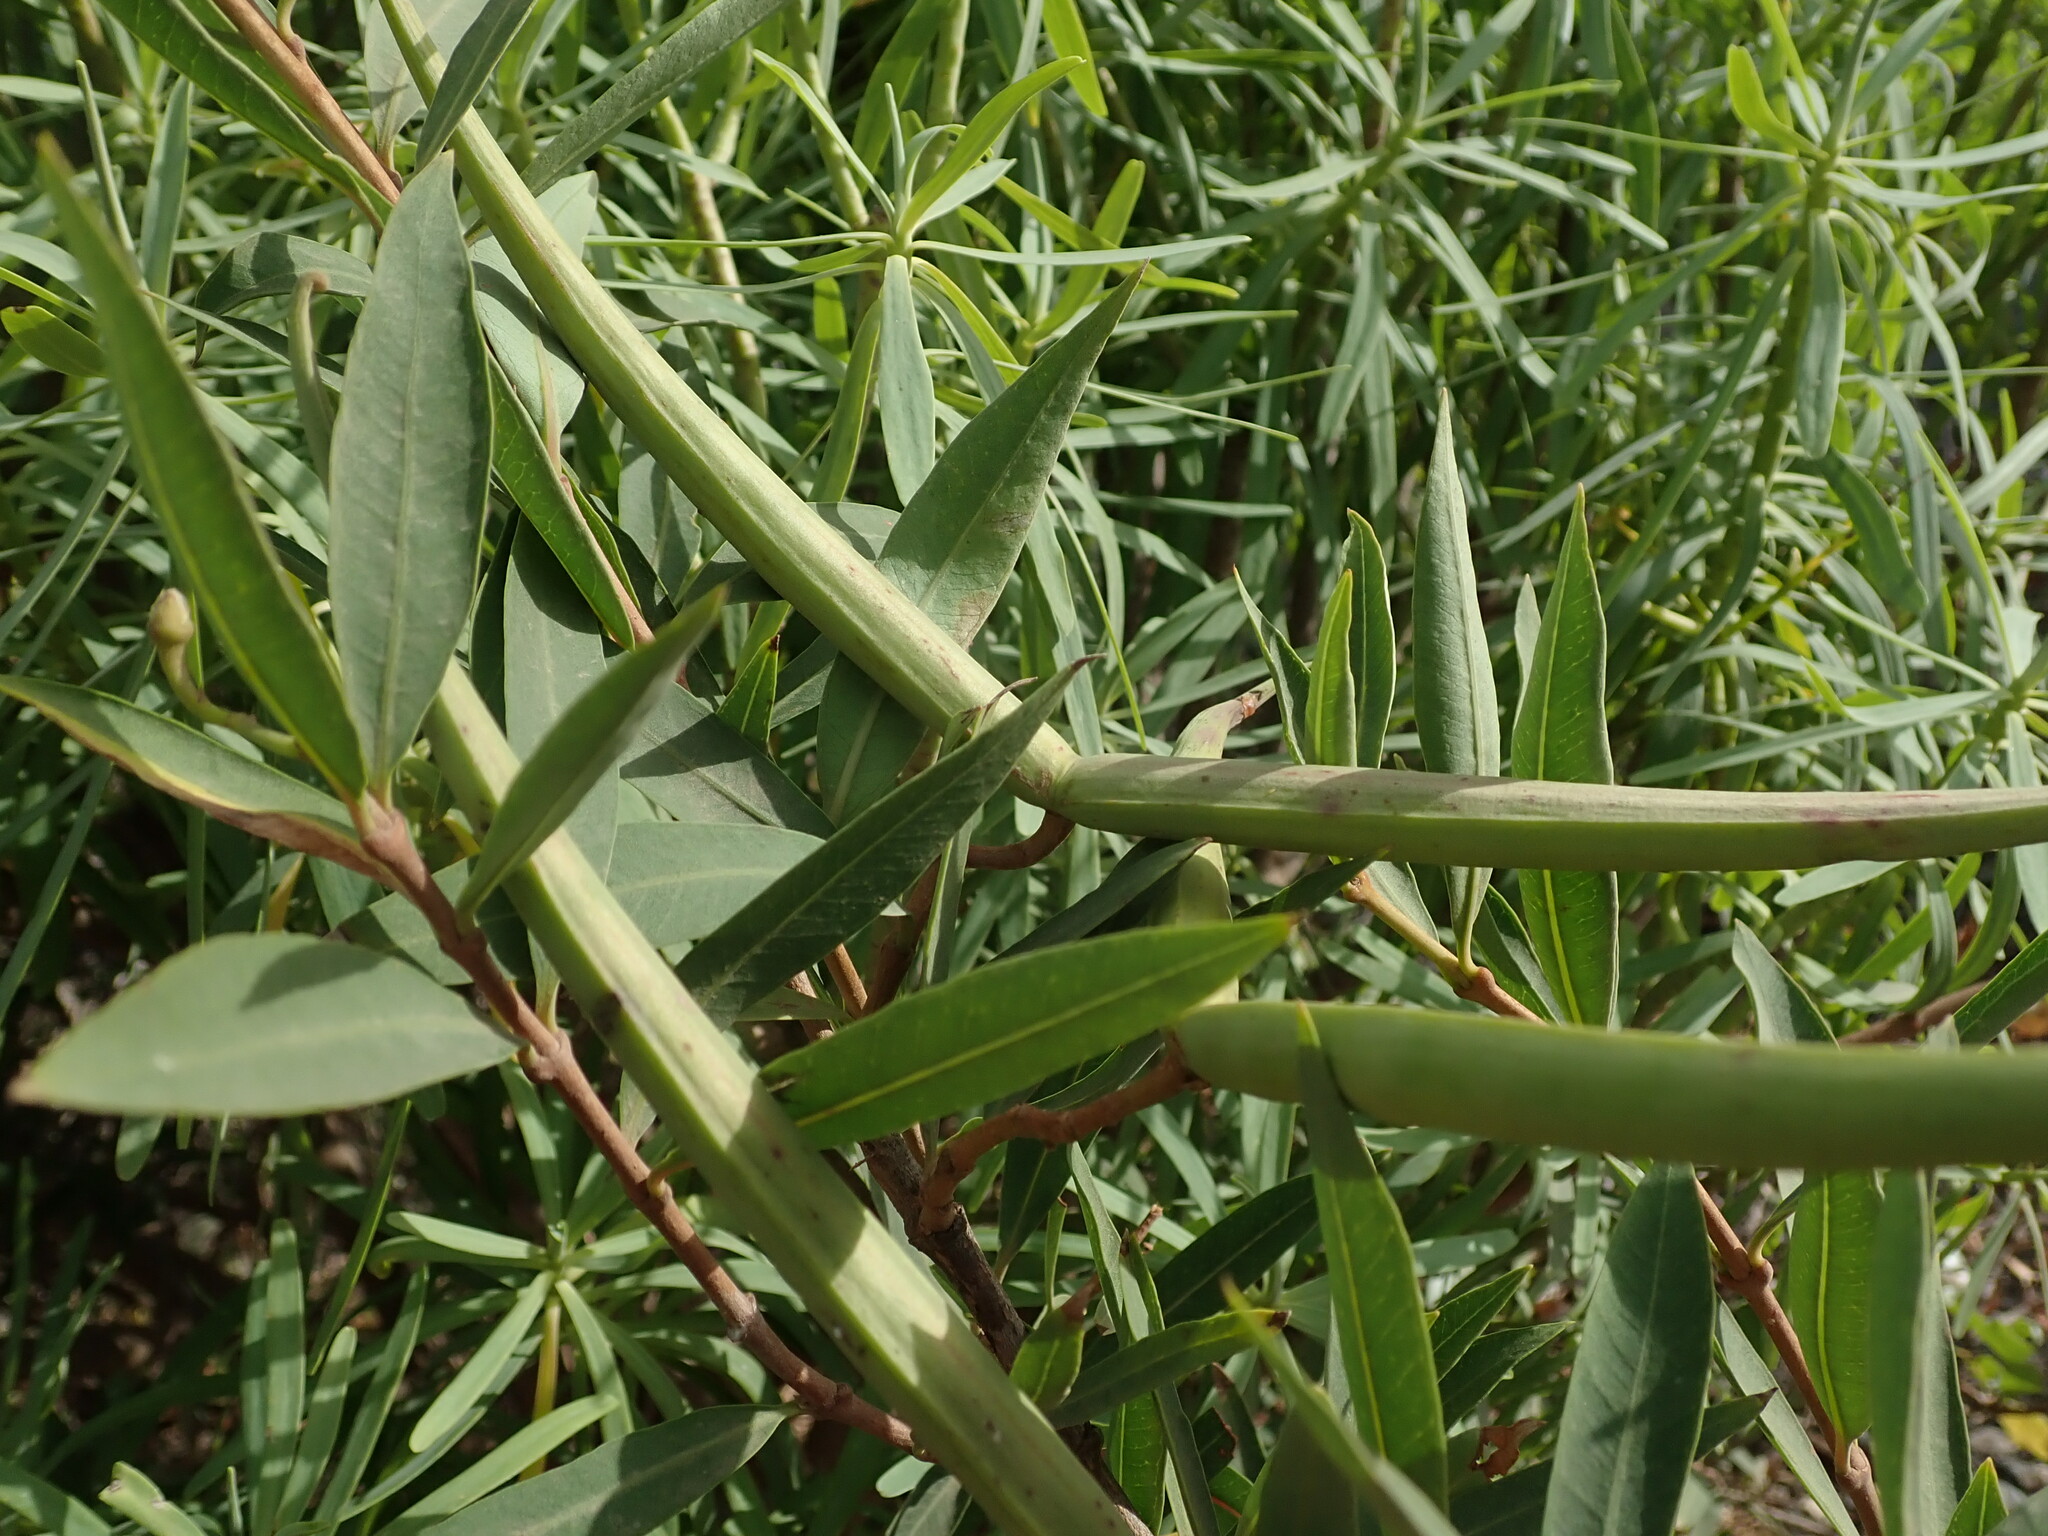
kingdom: Plantae
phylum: Tracheophyta
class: Magnoliopsida
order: Gentianales
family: Apocynaceae
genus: Periploca
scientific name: Periploca laevigata
